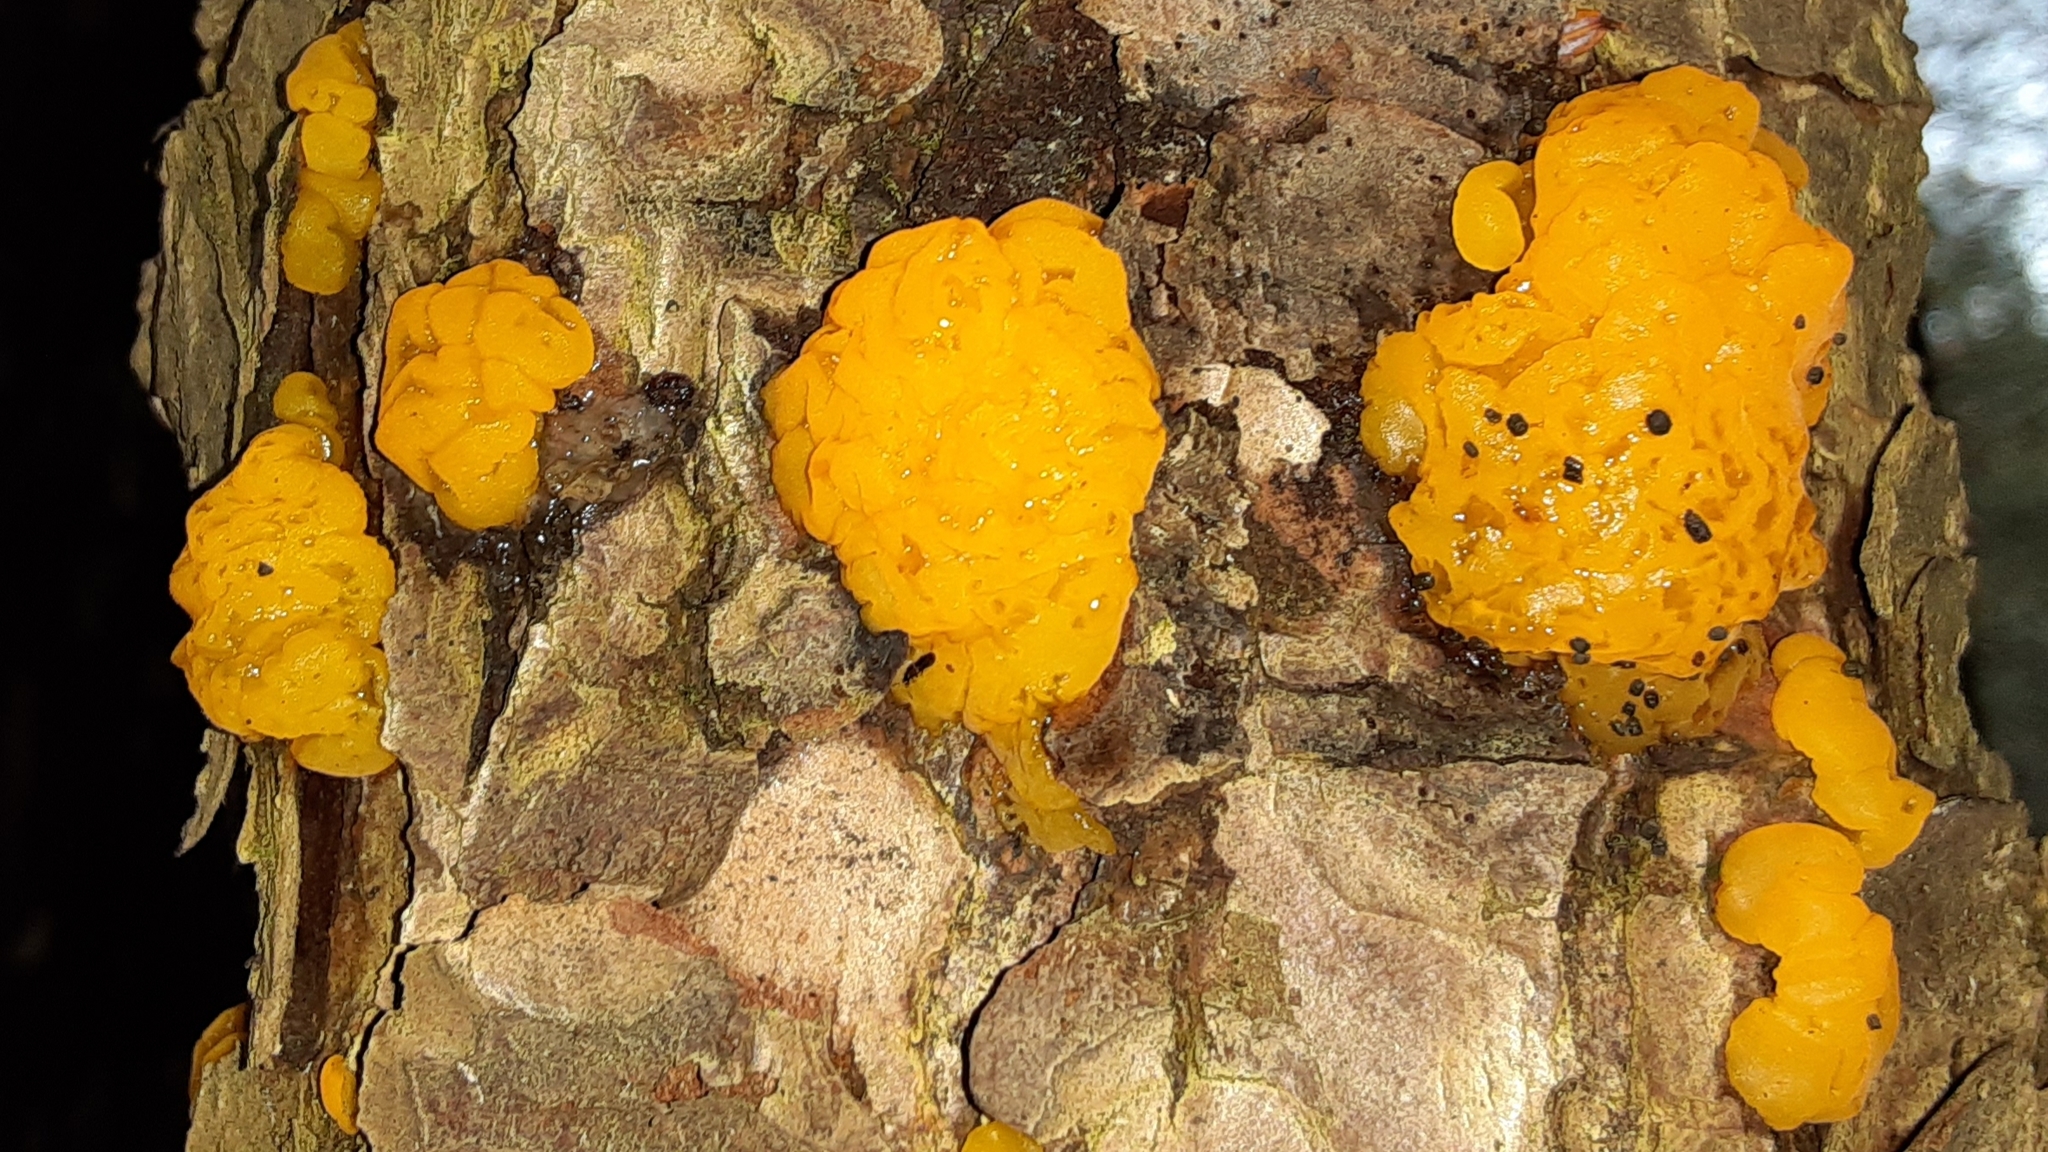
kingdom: Fungi
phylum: Basidiomycota
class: Dacrymycetes
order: Dacrymycetales
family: Dacrymycetaceae
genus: Dacrymyces
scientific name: Dacrymyces chrysospermus
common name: Orange jelly spot
